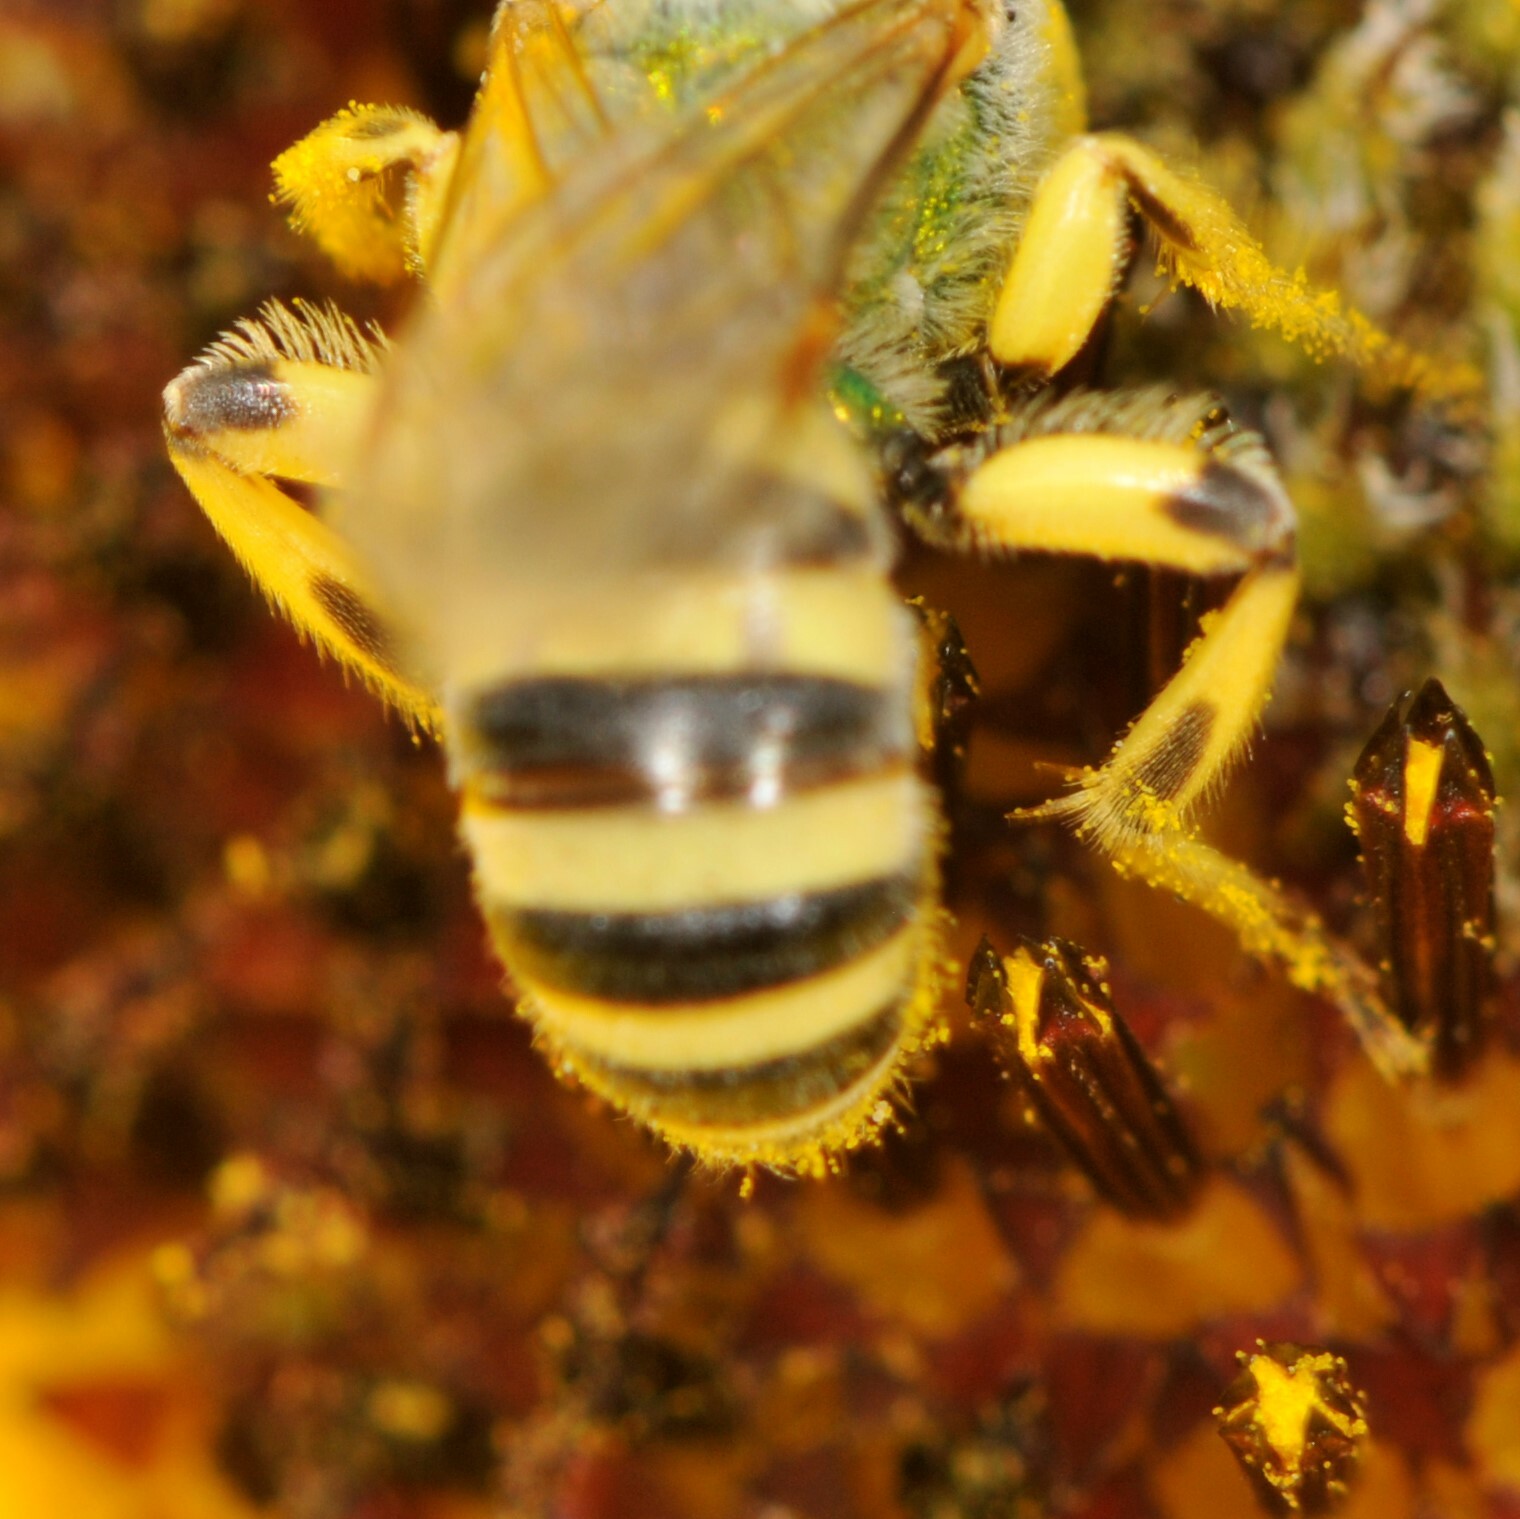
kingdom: Animalia
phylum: Arthropoda
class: Insecta
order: Hymenoptera
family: Halictidae
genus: Agapostemon
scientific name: Agapostemon angelicus
